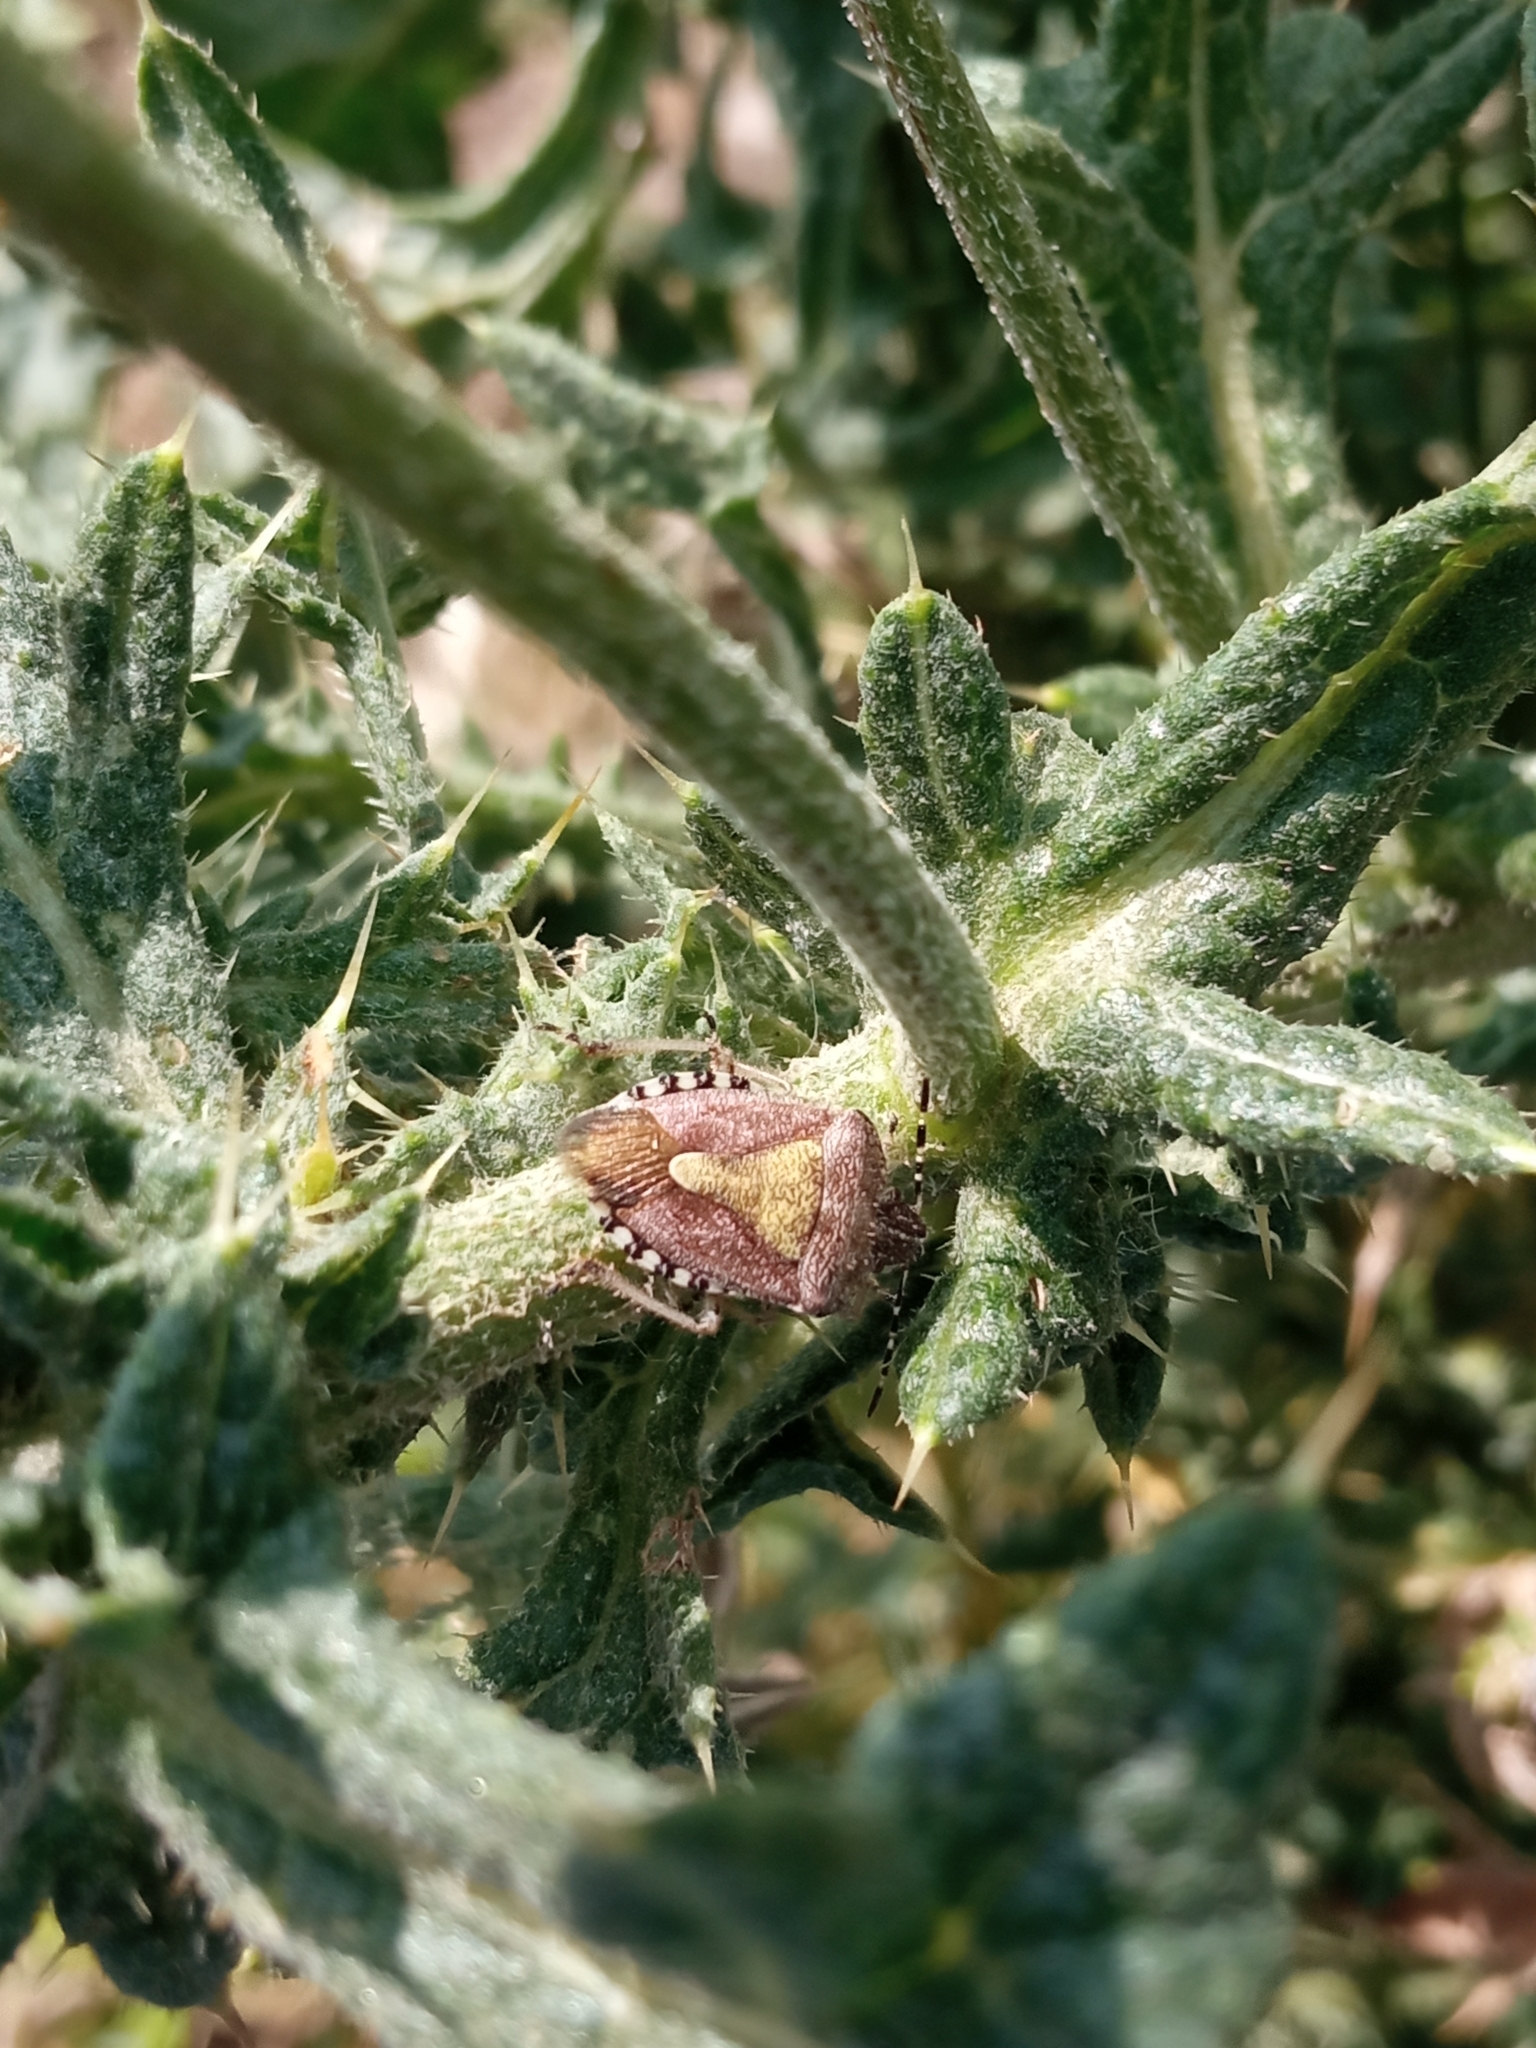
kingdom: Animalia
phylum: Arthropoda
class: Insecta
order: Hemiptera
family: Pentatomidae
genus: Dolycoris
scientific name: Dolycoris baccarum
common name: Sloe bug
